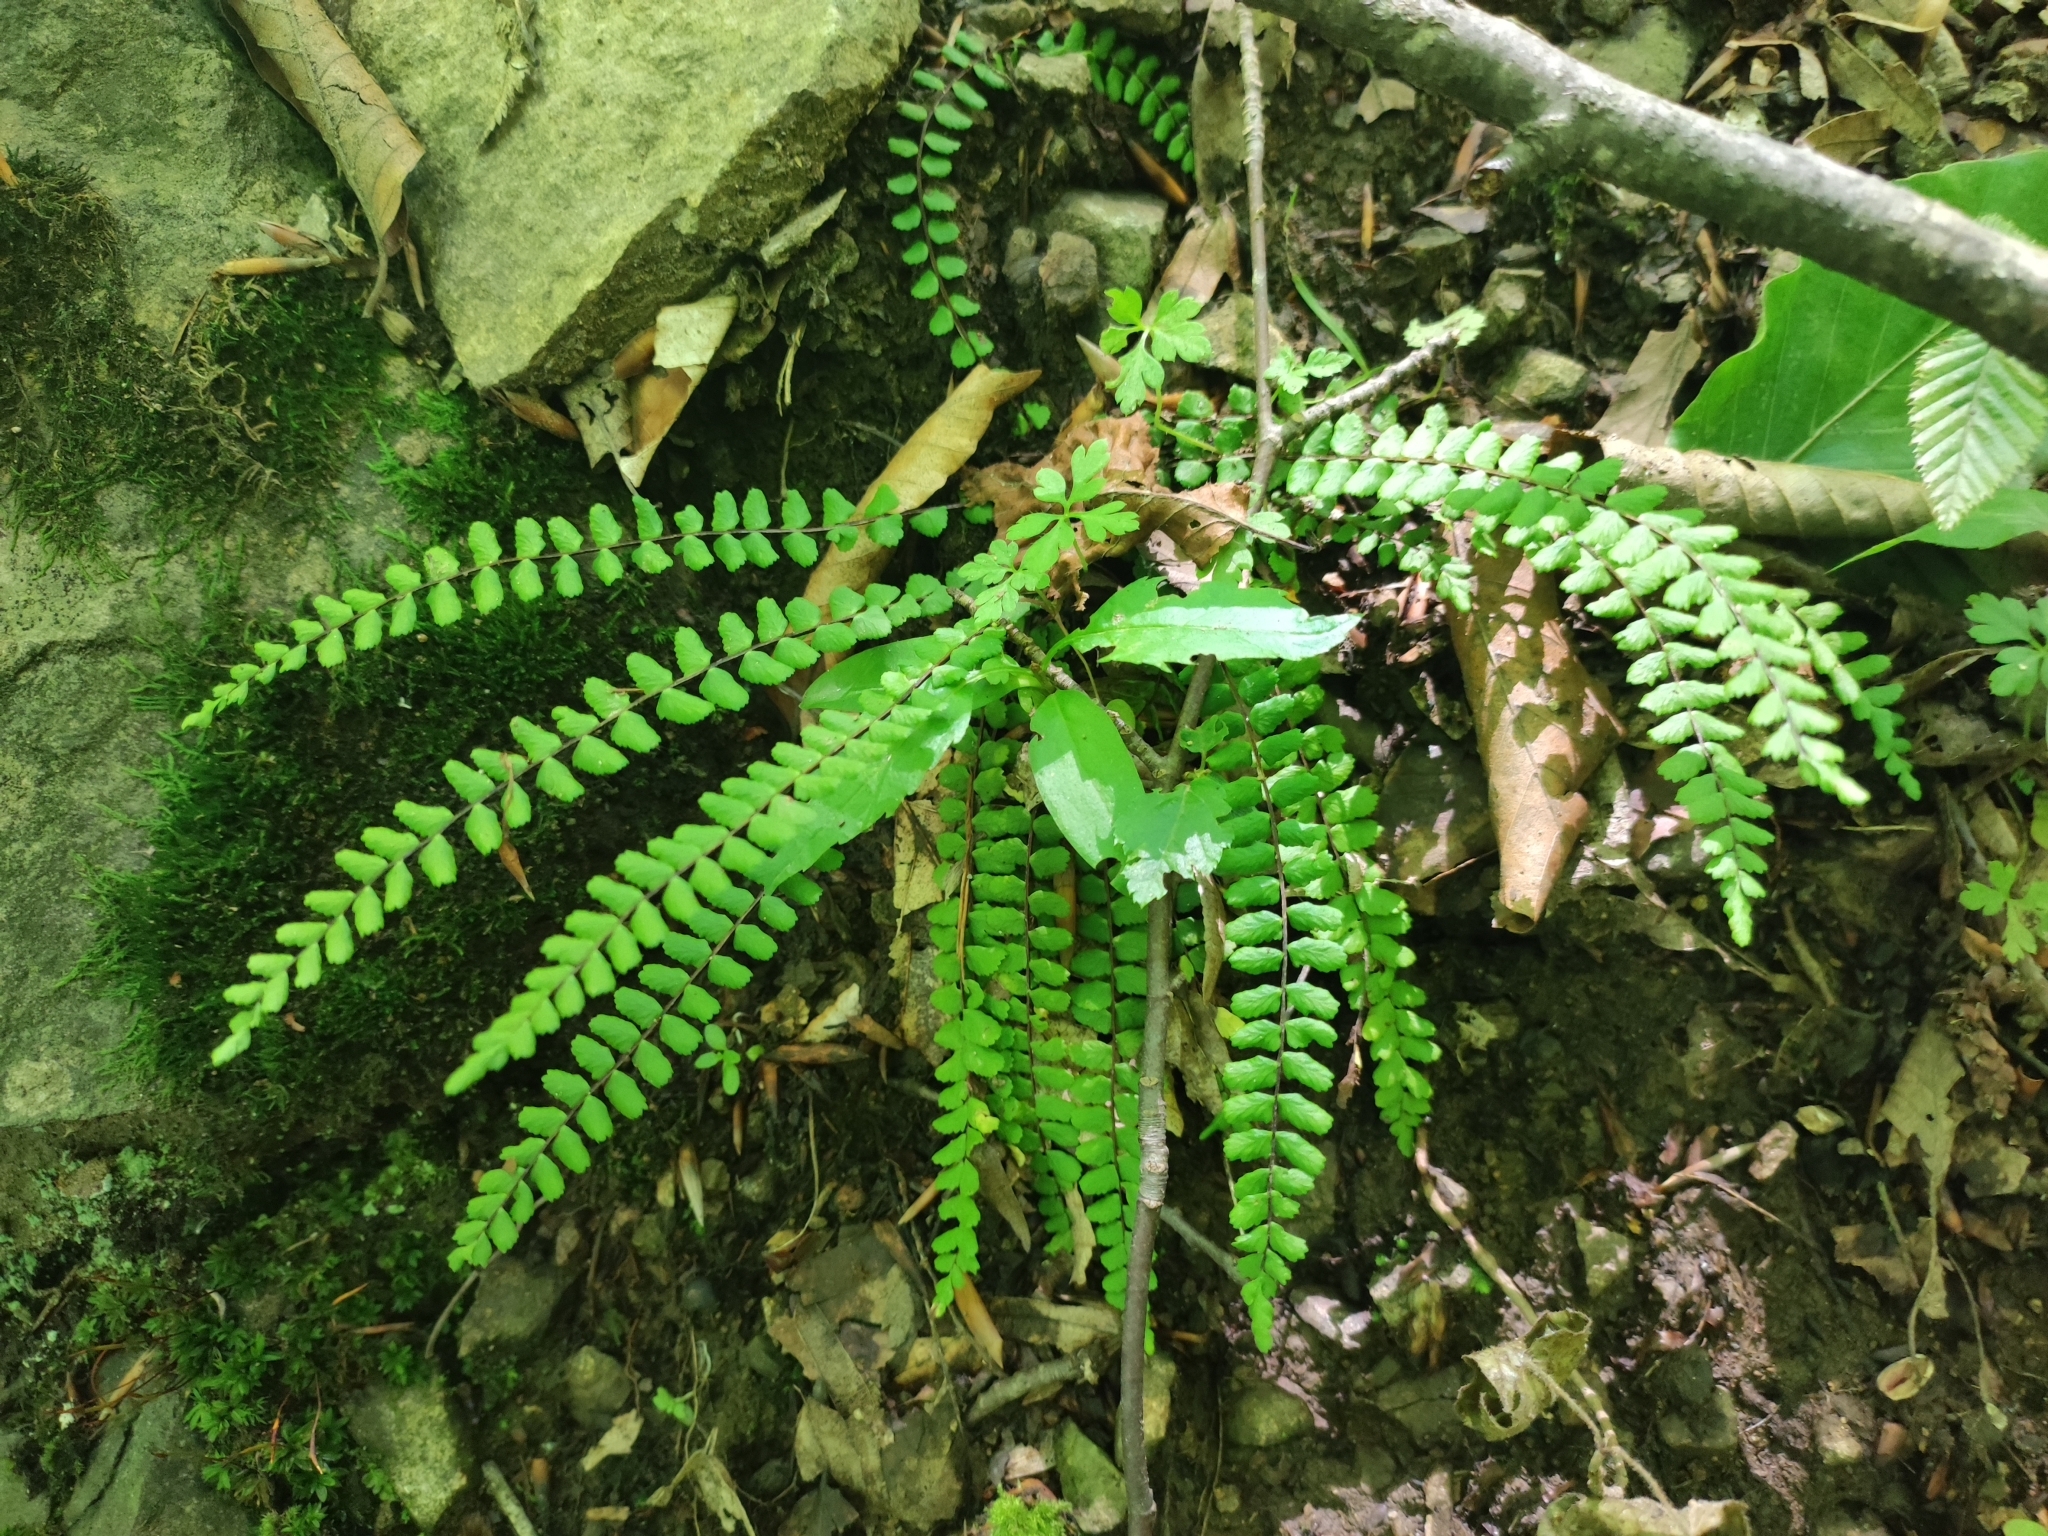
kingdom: Plantae
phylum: Tracheophyta
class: Polypodiopsida
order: Polypodiales
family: Aspleniaceae
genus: Asplenium
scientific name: Asplenium trichomanes
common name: Maidenhair spleenwort
